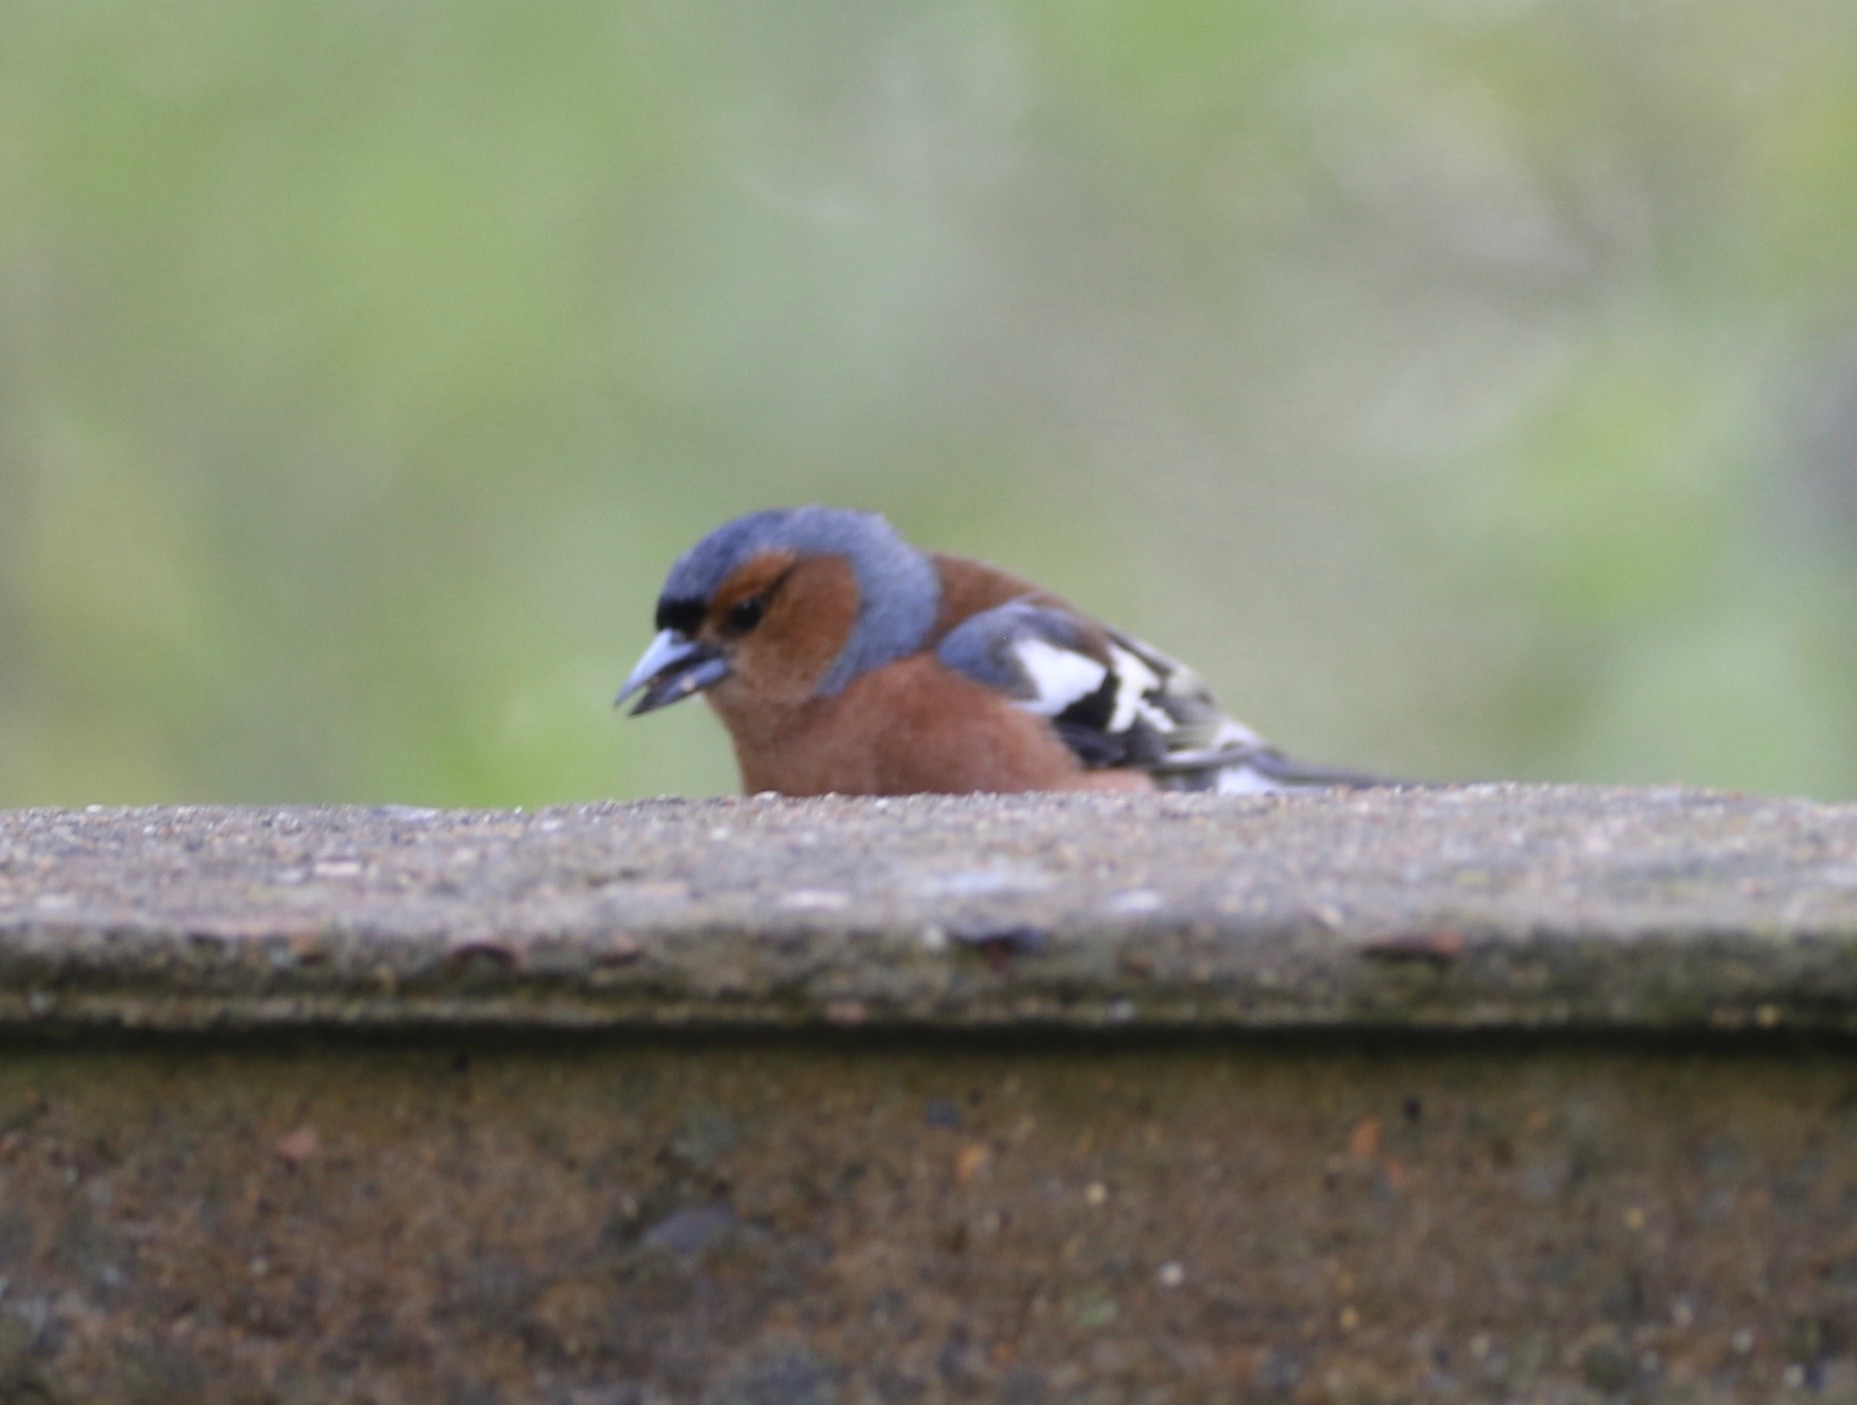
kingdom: Animalia
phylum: Chordata
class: Aves
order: Passeriformes
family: Fringillidae
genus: Fringilla
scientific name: Fringilla coelebs
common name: Common chaffinch
